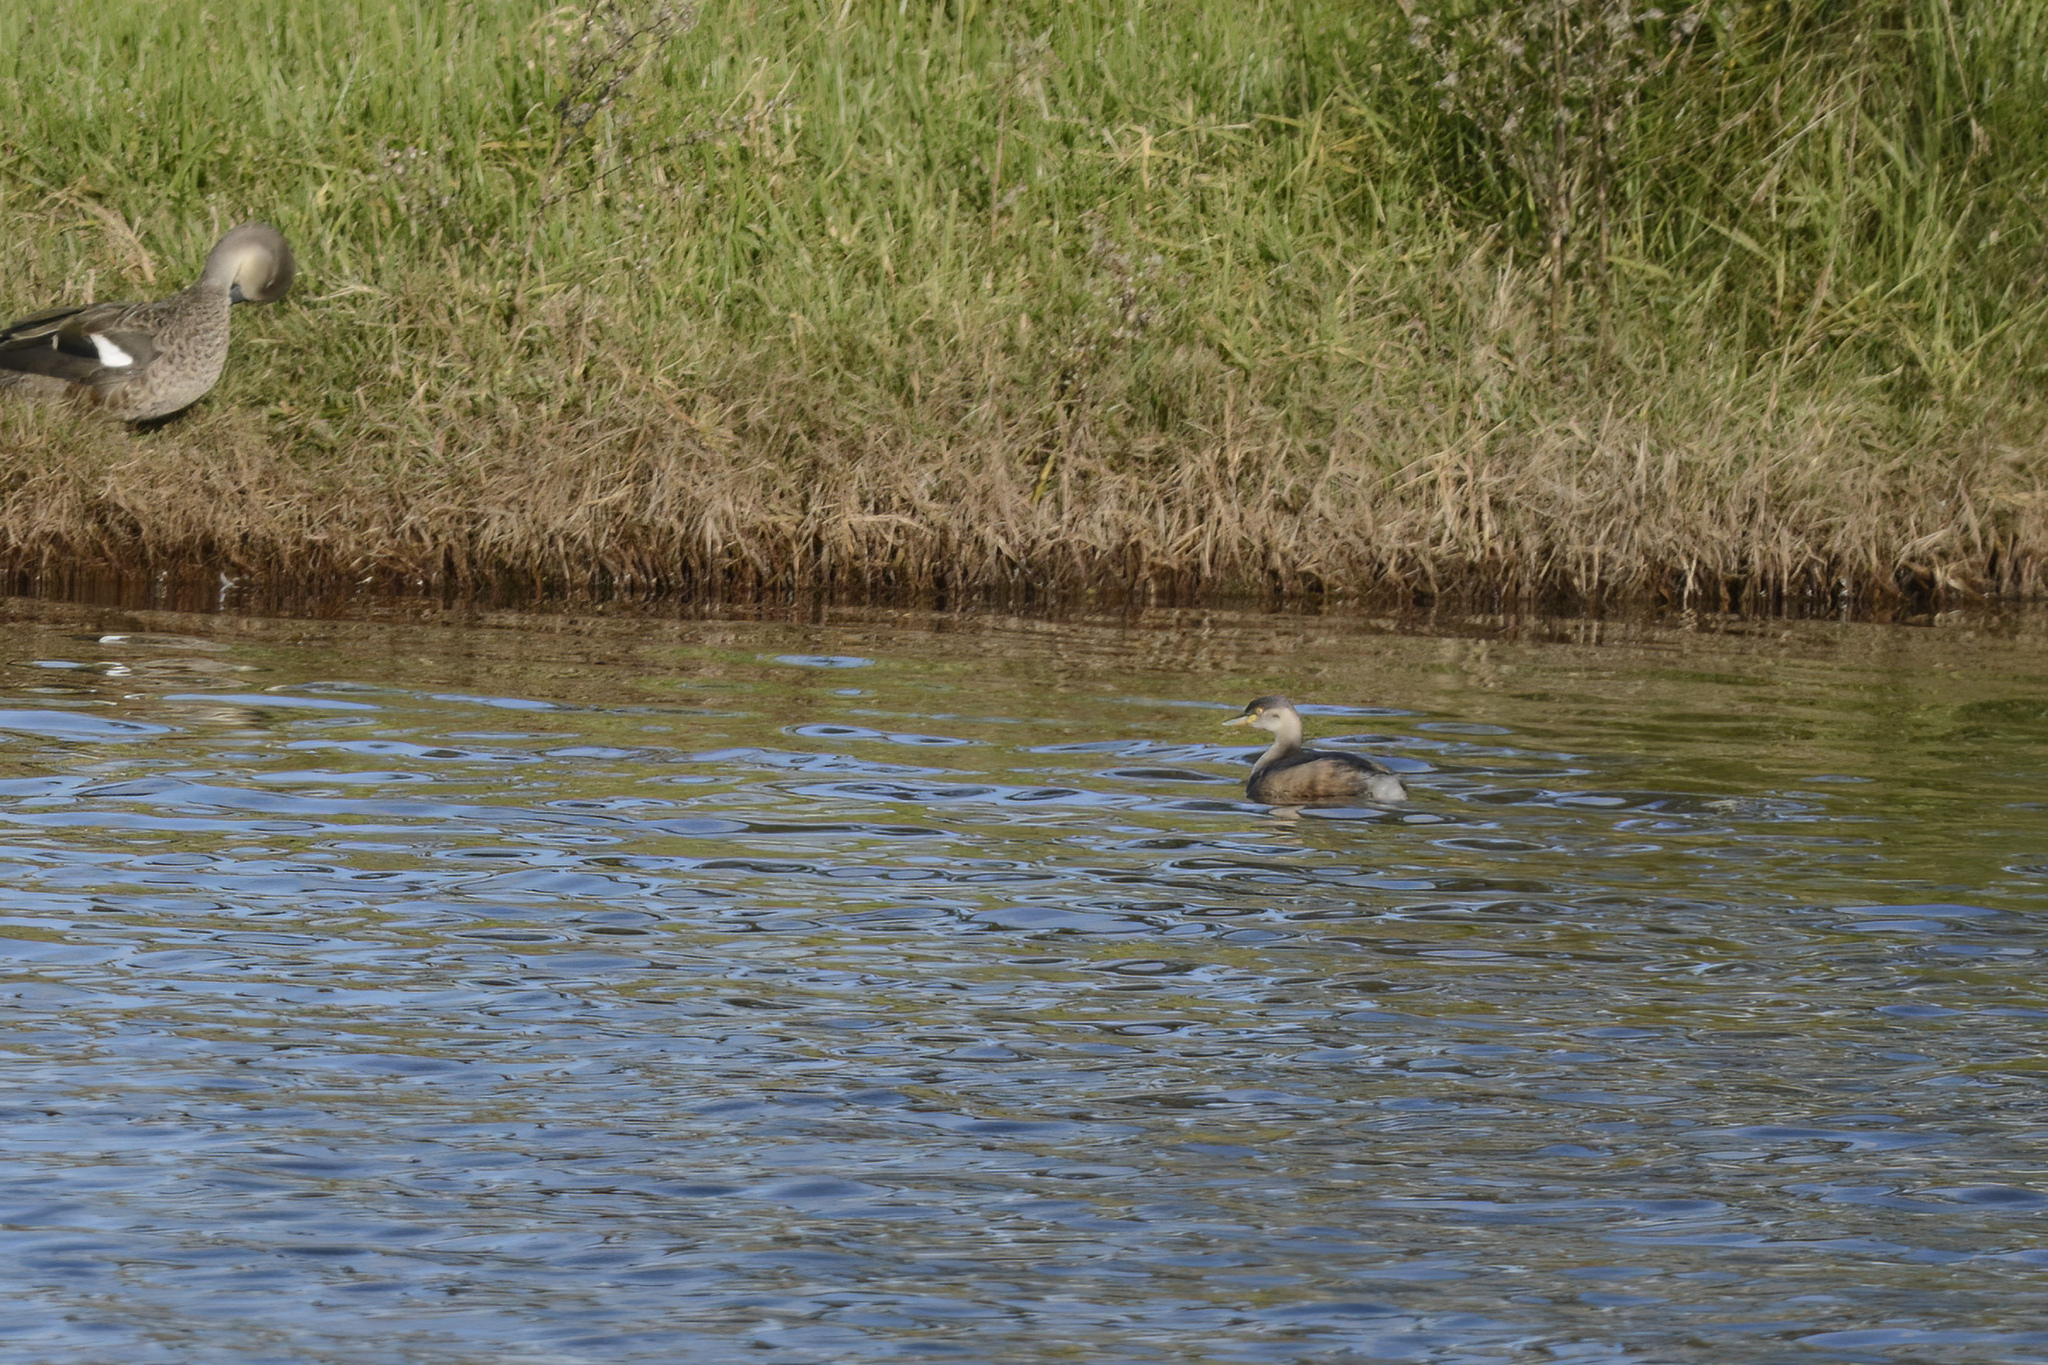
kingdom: Animalia
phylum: Chordata
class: Aves
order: Podicipediformes
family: Podicipedidae
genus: Tachybaptus
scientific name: Tachybaptus novaehollandiae
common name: Australasian grebe
